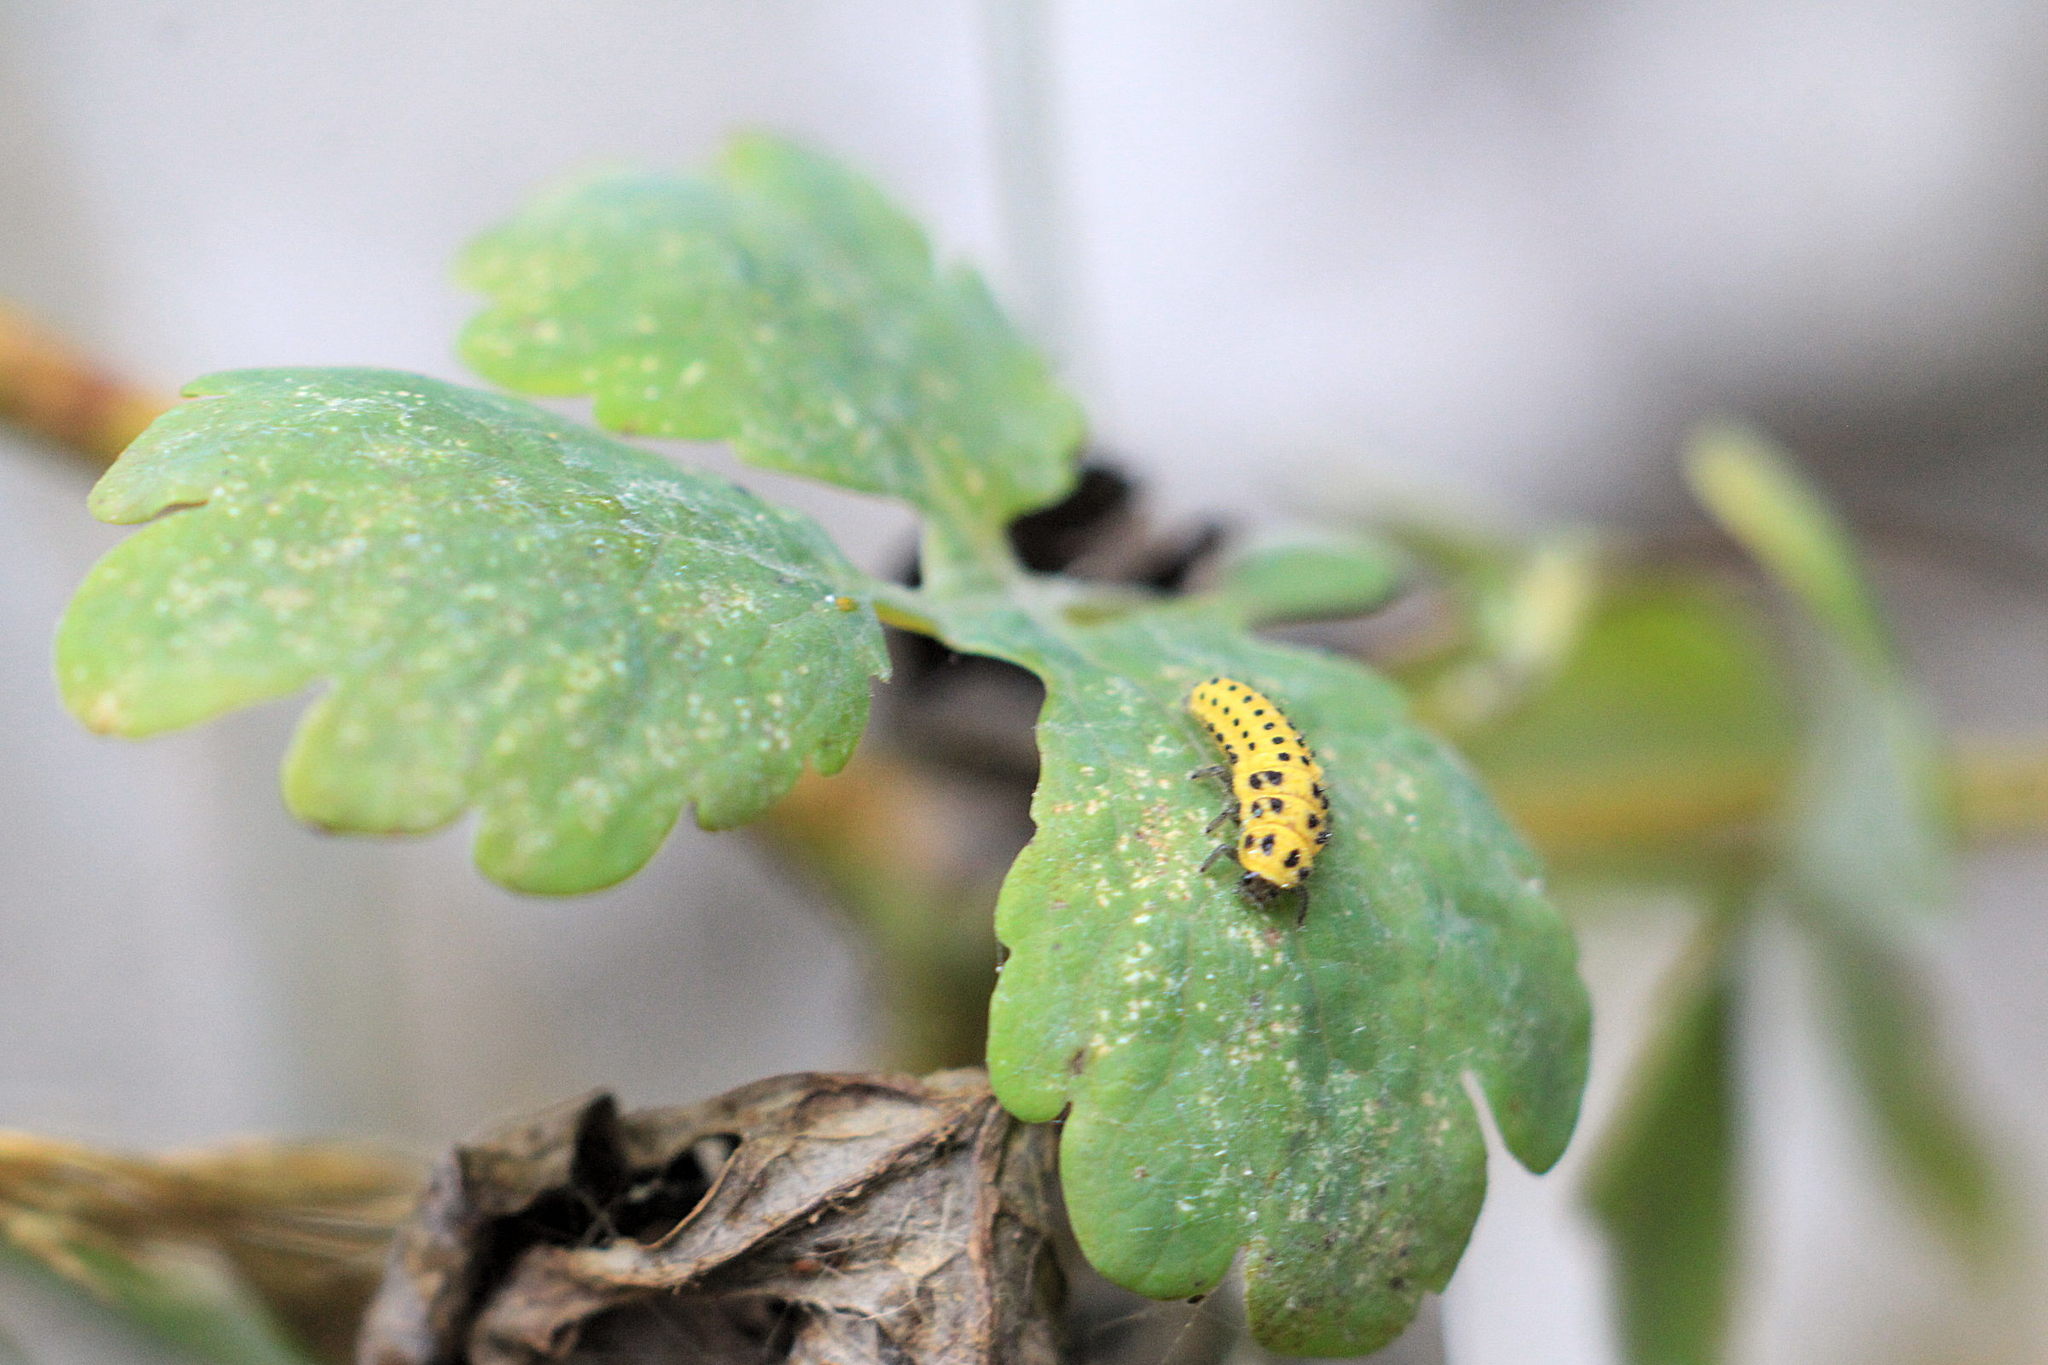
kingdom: Animalia
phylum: Arthropoda
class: Insecta
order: Coleoptera
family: Coccinellidae
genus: Psyllobora
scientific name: Psyllobora vigintiduopunctata
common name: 22-spot ladybird
